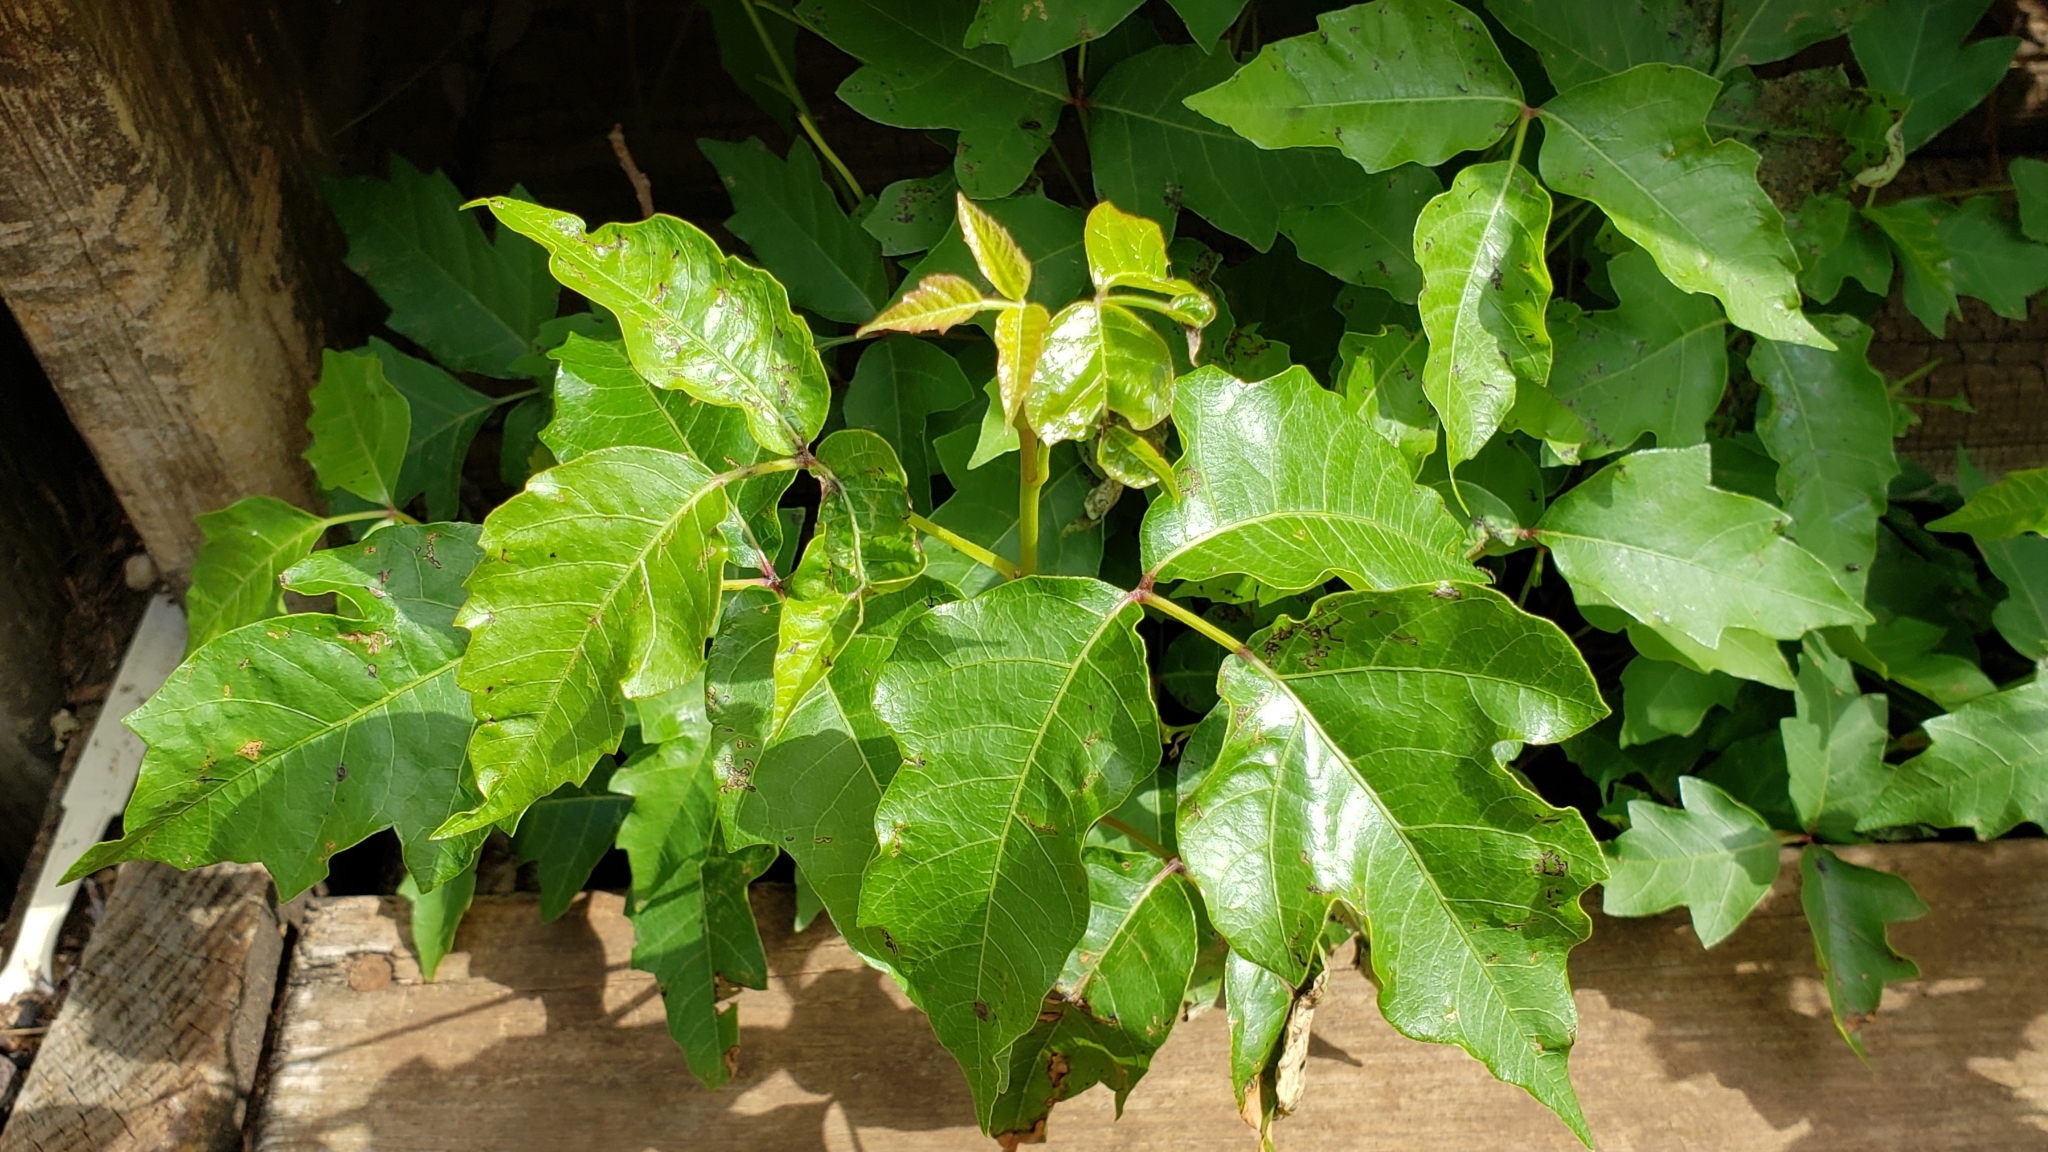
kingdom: Plantae
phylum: Tracheophyta
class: Magnoliopsida
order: Sapindales
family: Anacardiaceae
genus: Toxicodendron
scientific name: Toxicodendron radicans
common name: Poison ivy
